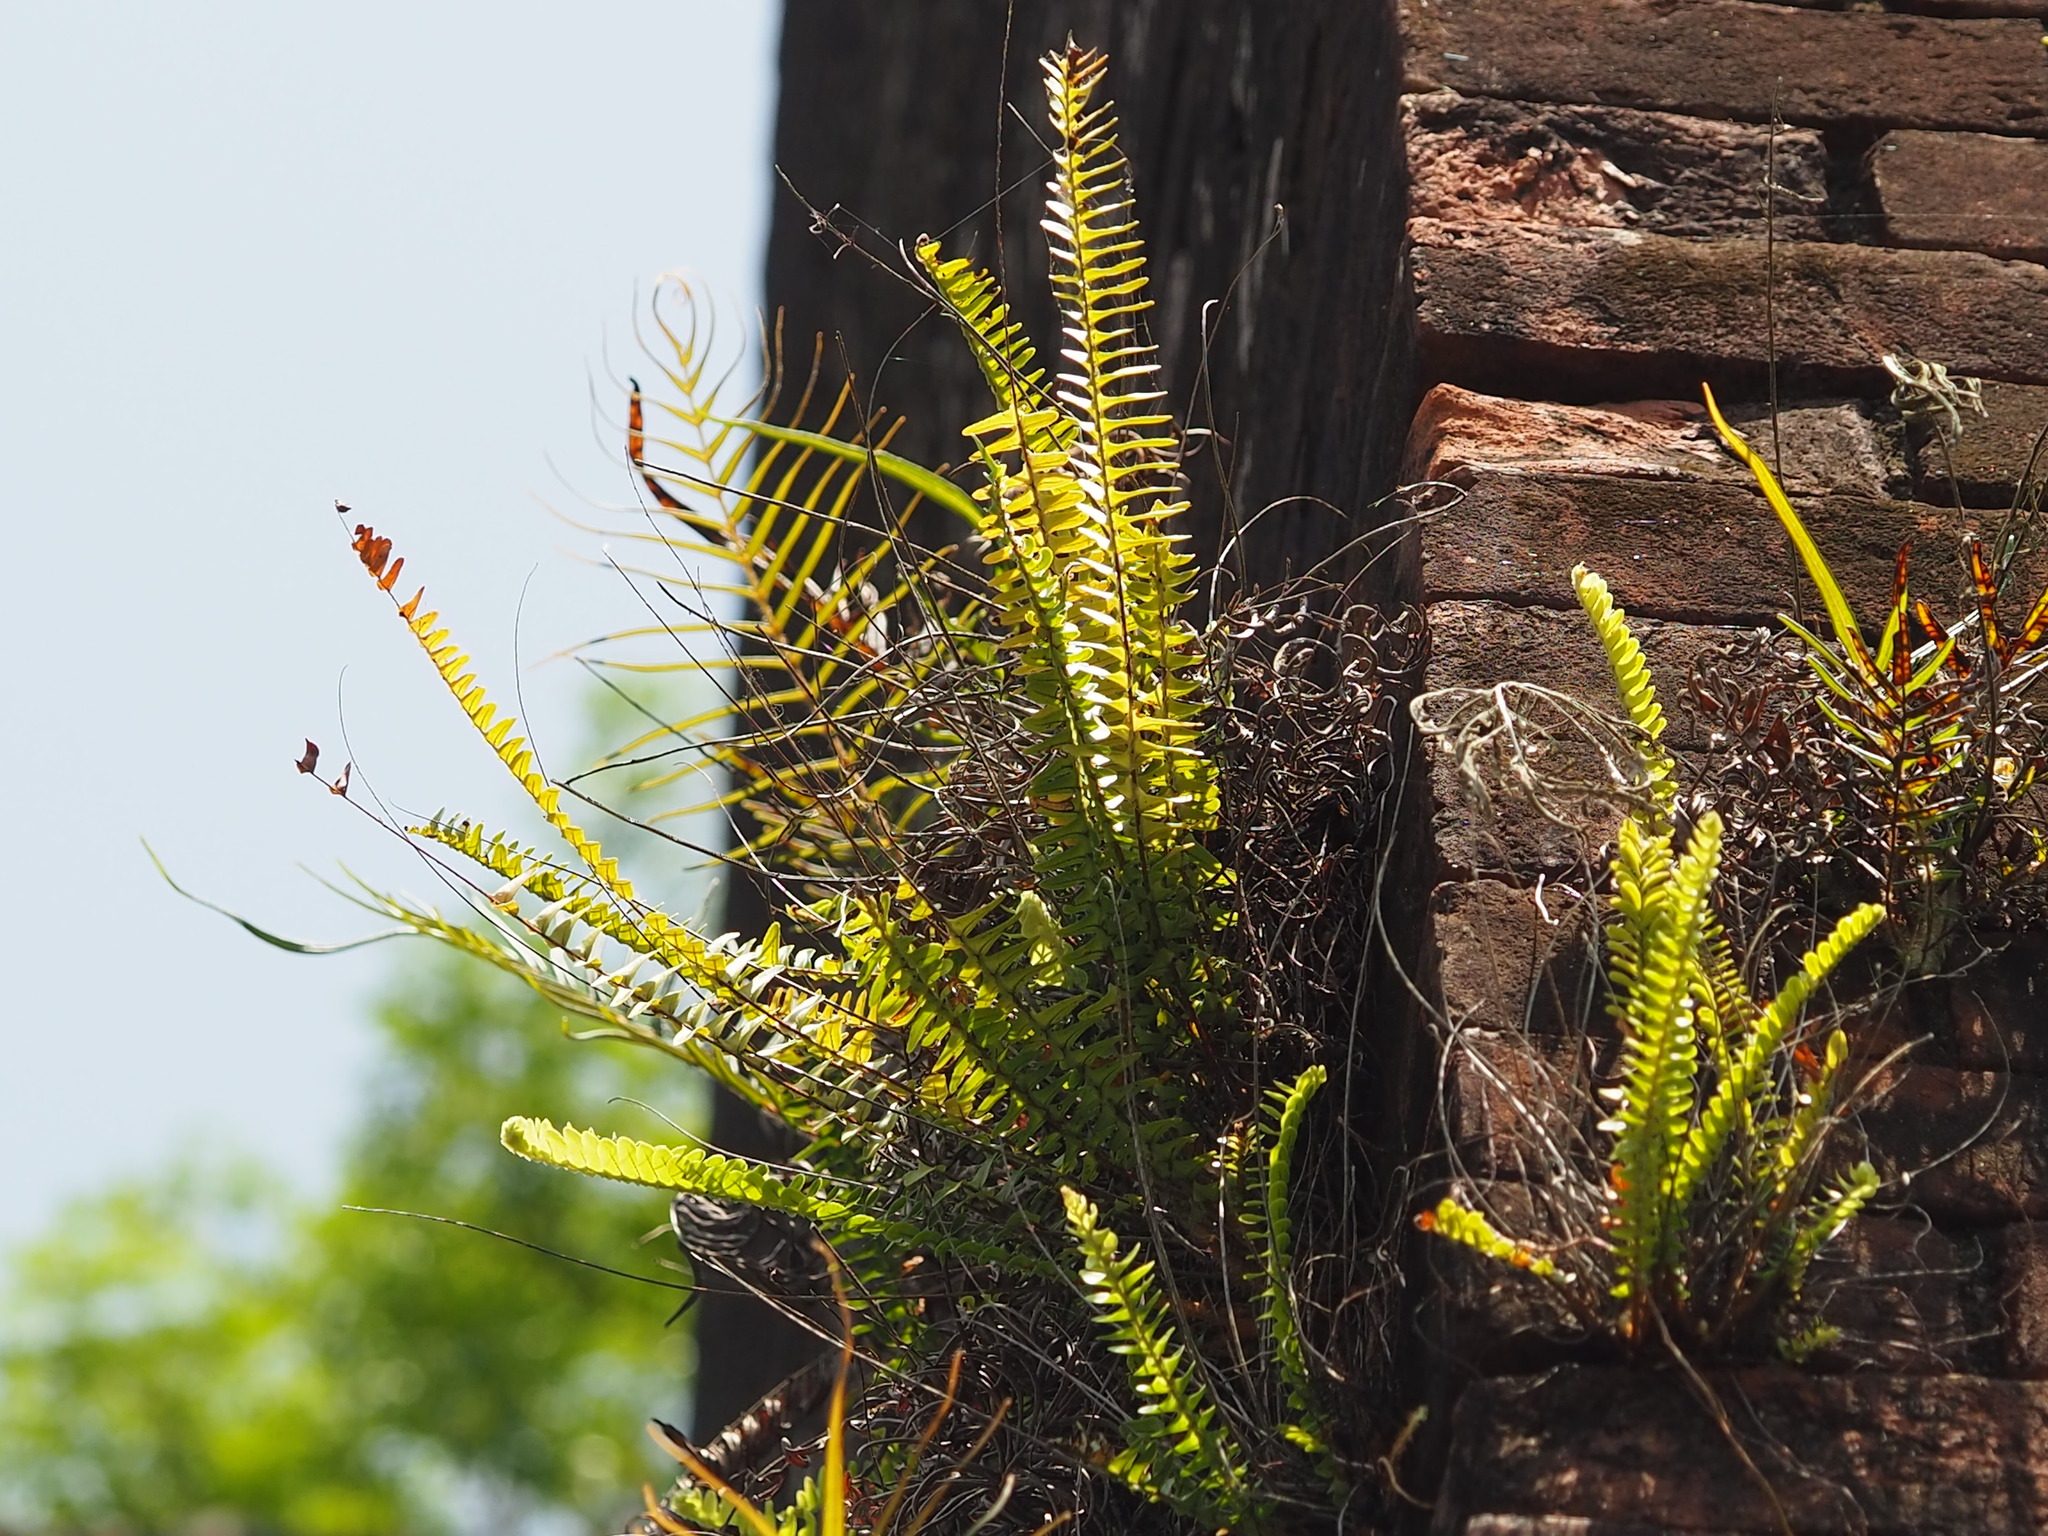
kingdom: Plantae
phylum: Tracheophyta
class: Polypodiopsida
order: Polypodiales
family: Nephrolepidaceae
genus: Nephrolepis
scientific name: Nephrolepis cordifolia
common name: Narrow swordfern
